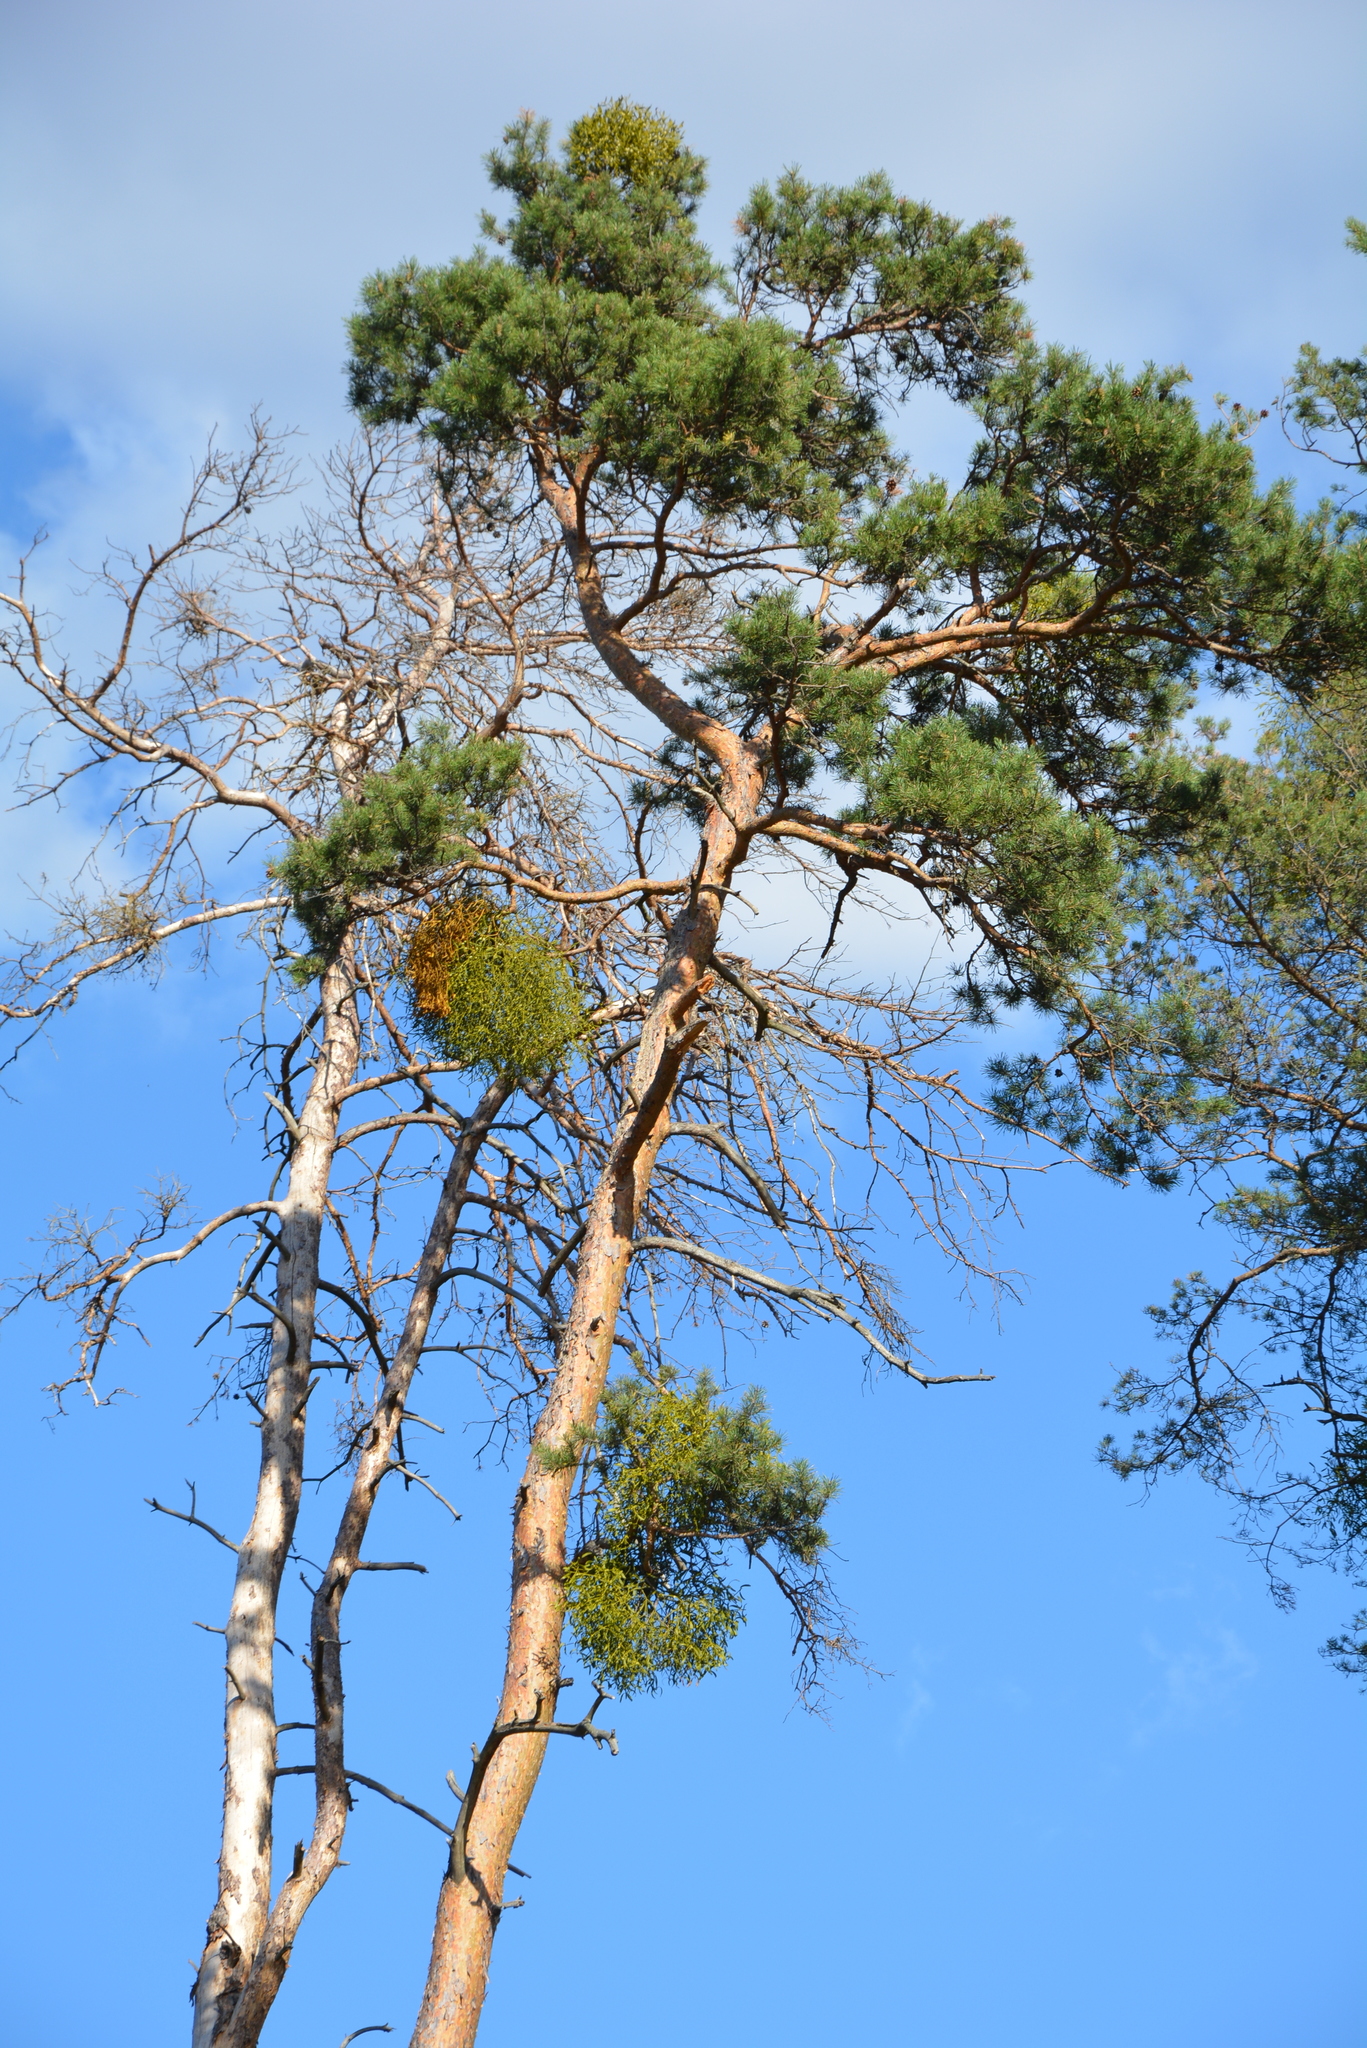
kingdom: Plantae
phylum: Tracheophyta
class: Pinopsida
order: Pinales
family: Pinaceae
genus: Pinus
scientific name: Pinus sylvestris
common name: Scots pine
